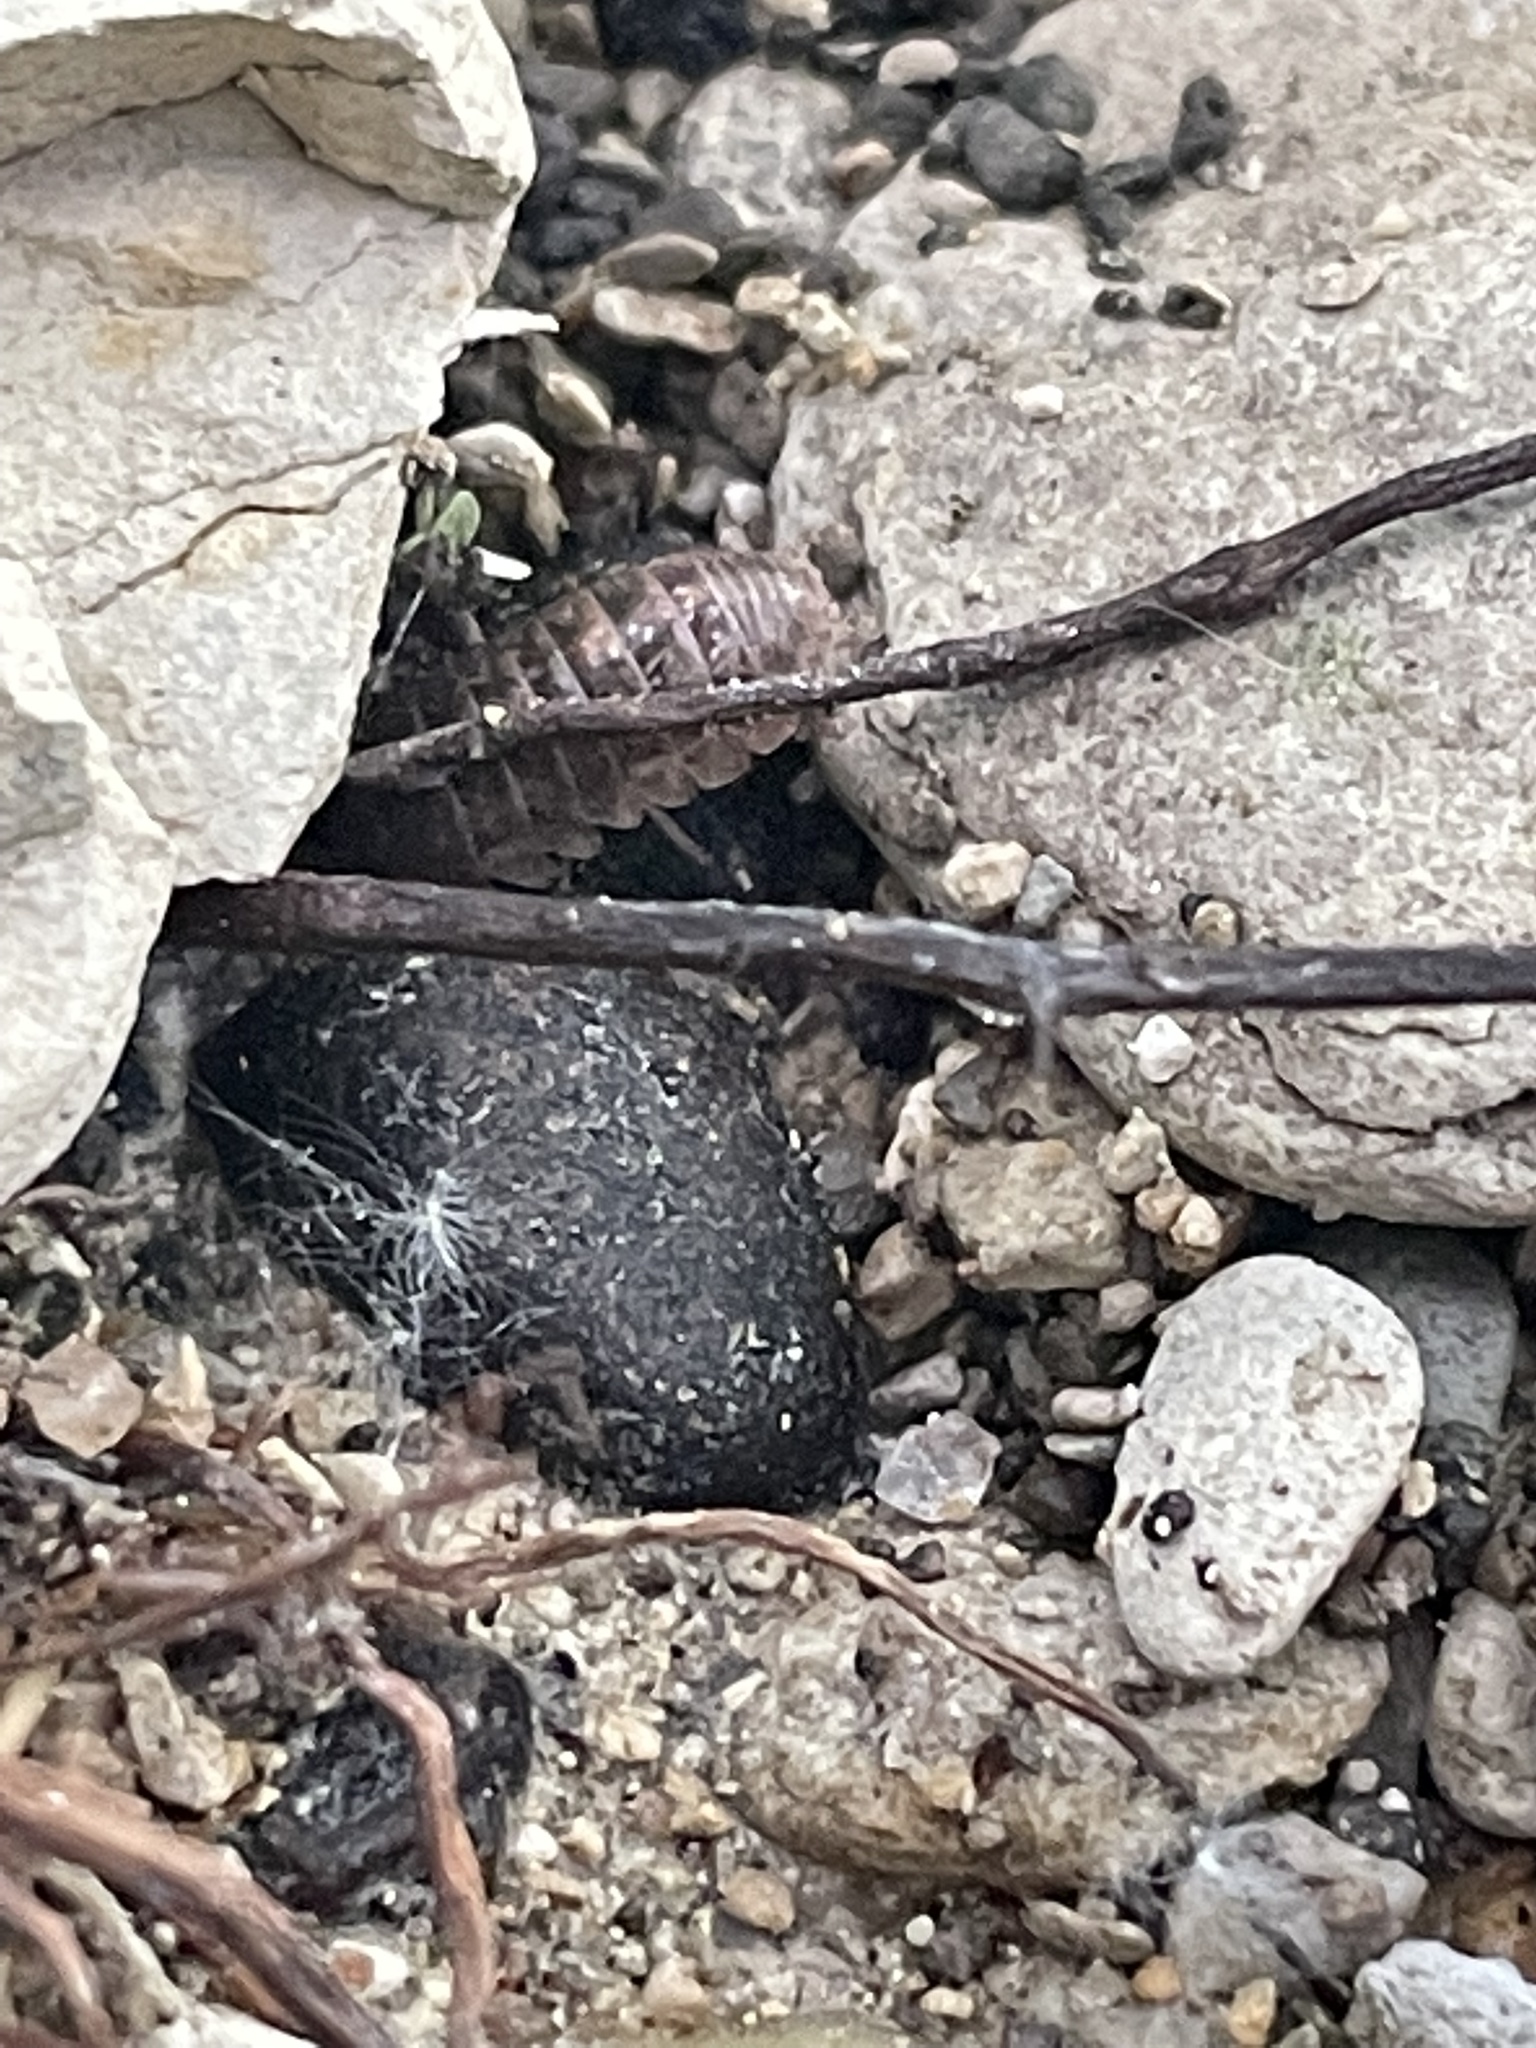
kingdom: Animalia
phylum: Arthropoda
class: Malacostraca
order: Isopoda
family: Armadillidiidae
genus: Armadillidium
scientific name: Armadillidium vulgare
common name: Common pill woodlouse
